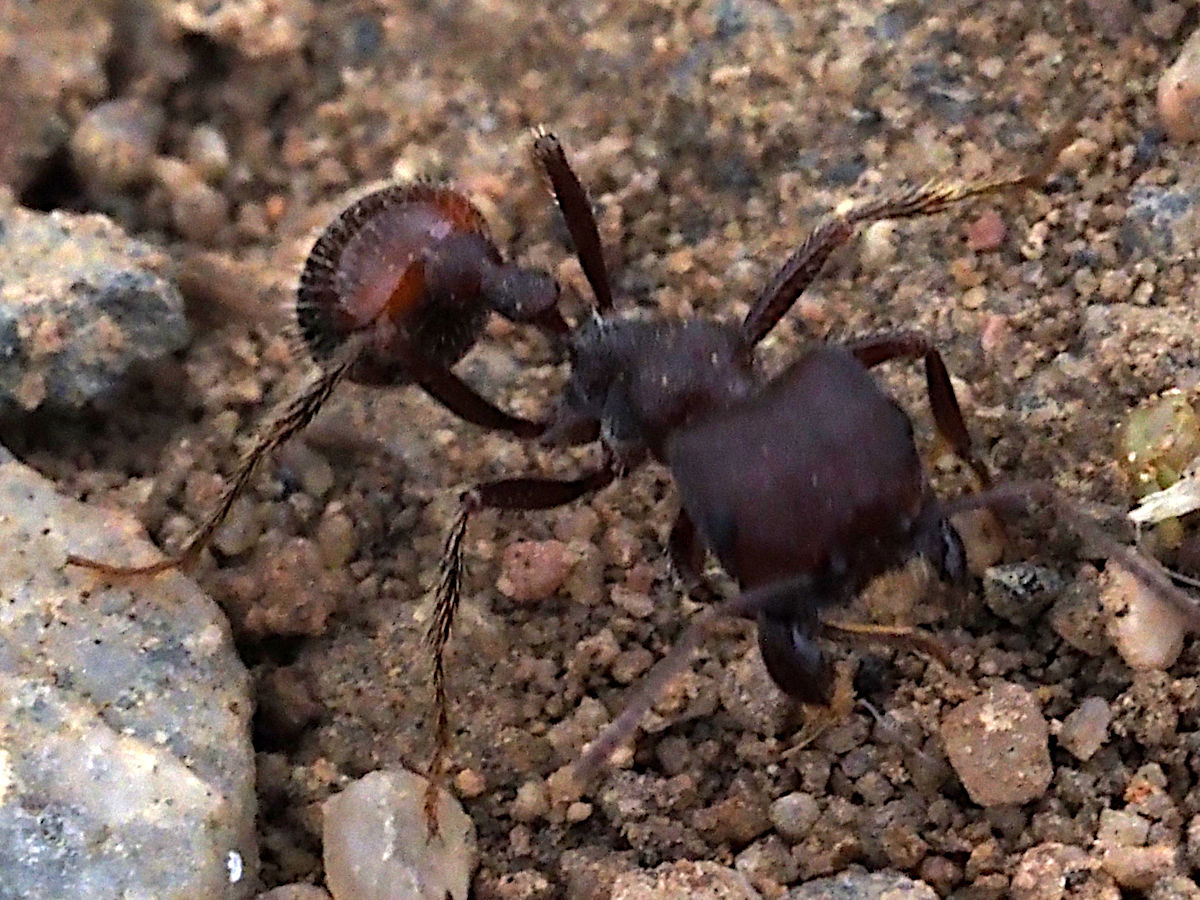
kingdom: Animalia
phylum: Arthropoda
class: Insecta
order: Hymenoptera
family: Formicidae
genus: Pogonomyrmex
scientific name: Pogonomyrmex rugosus
